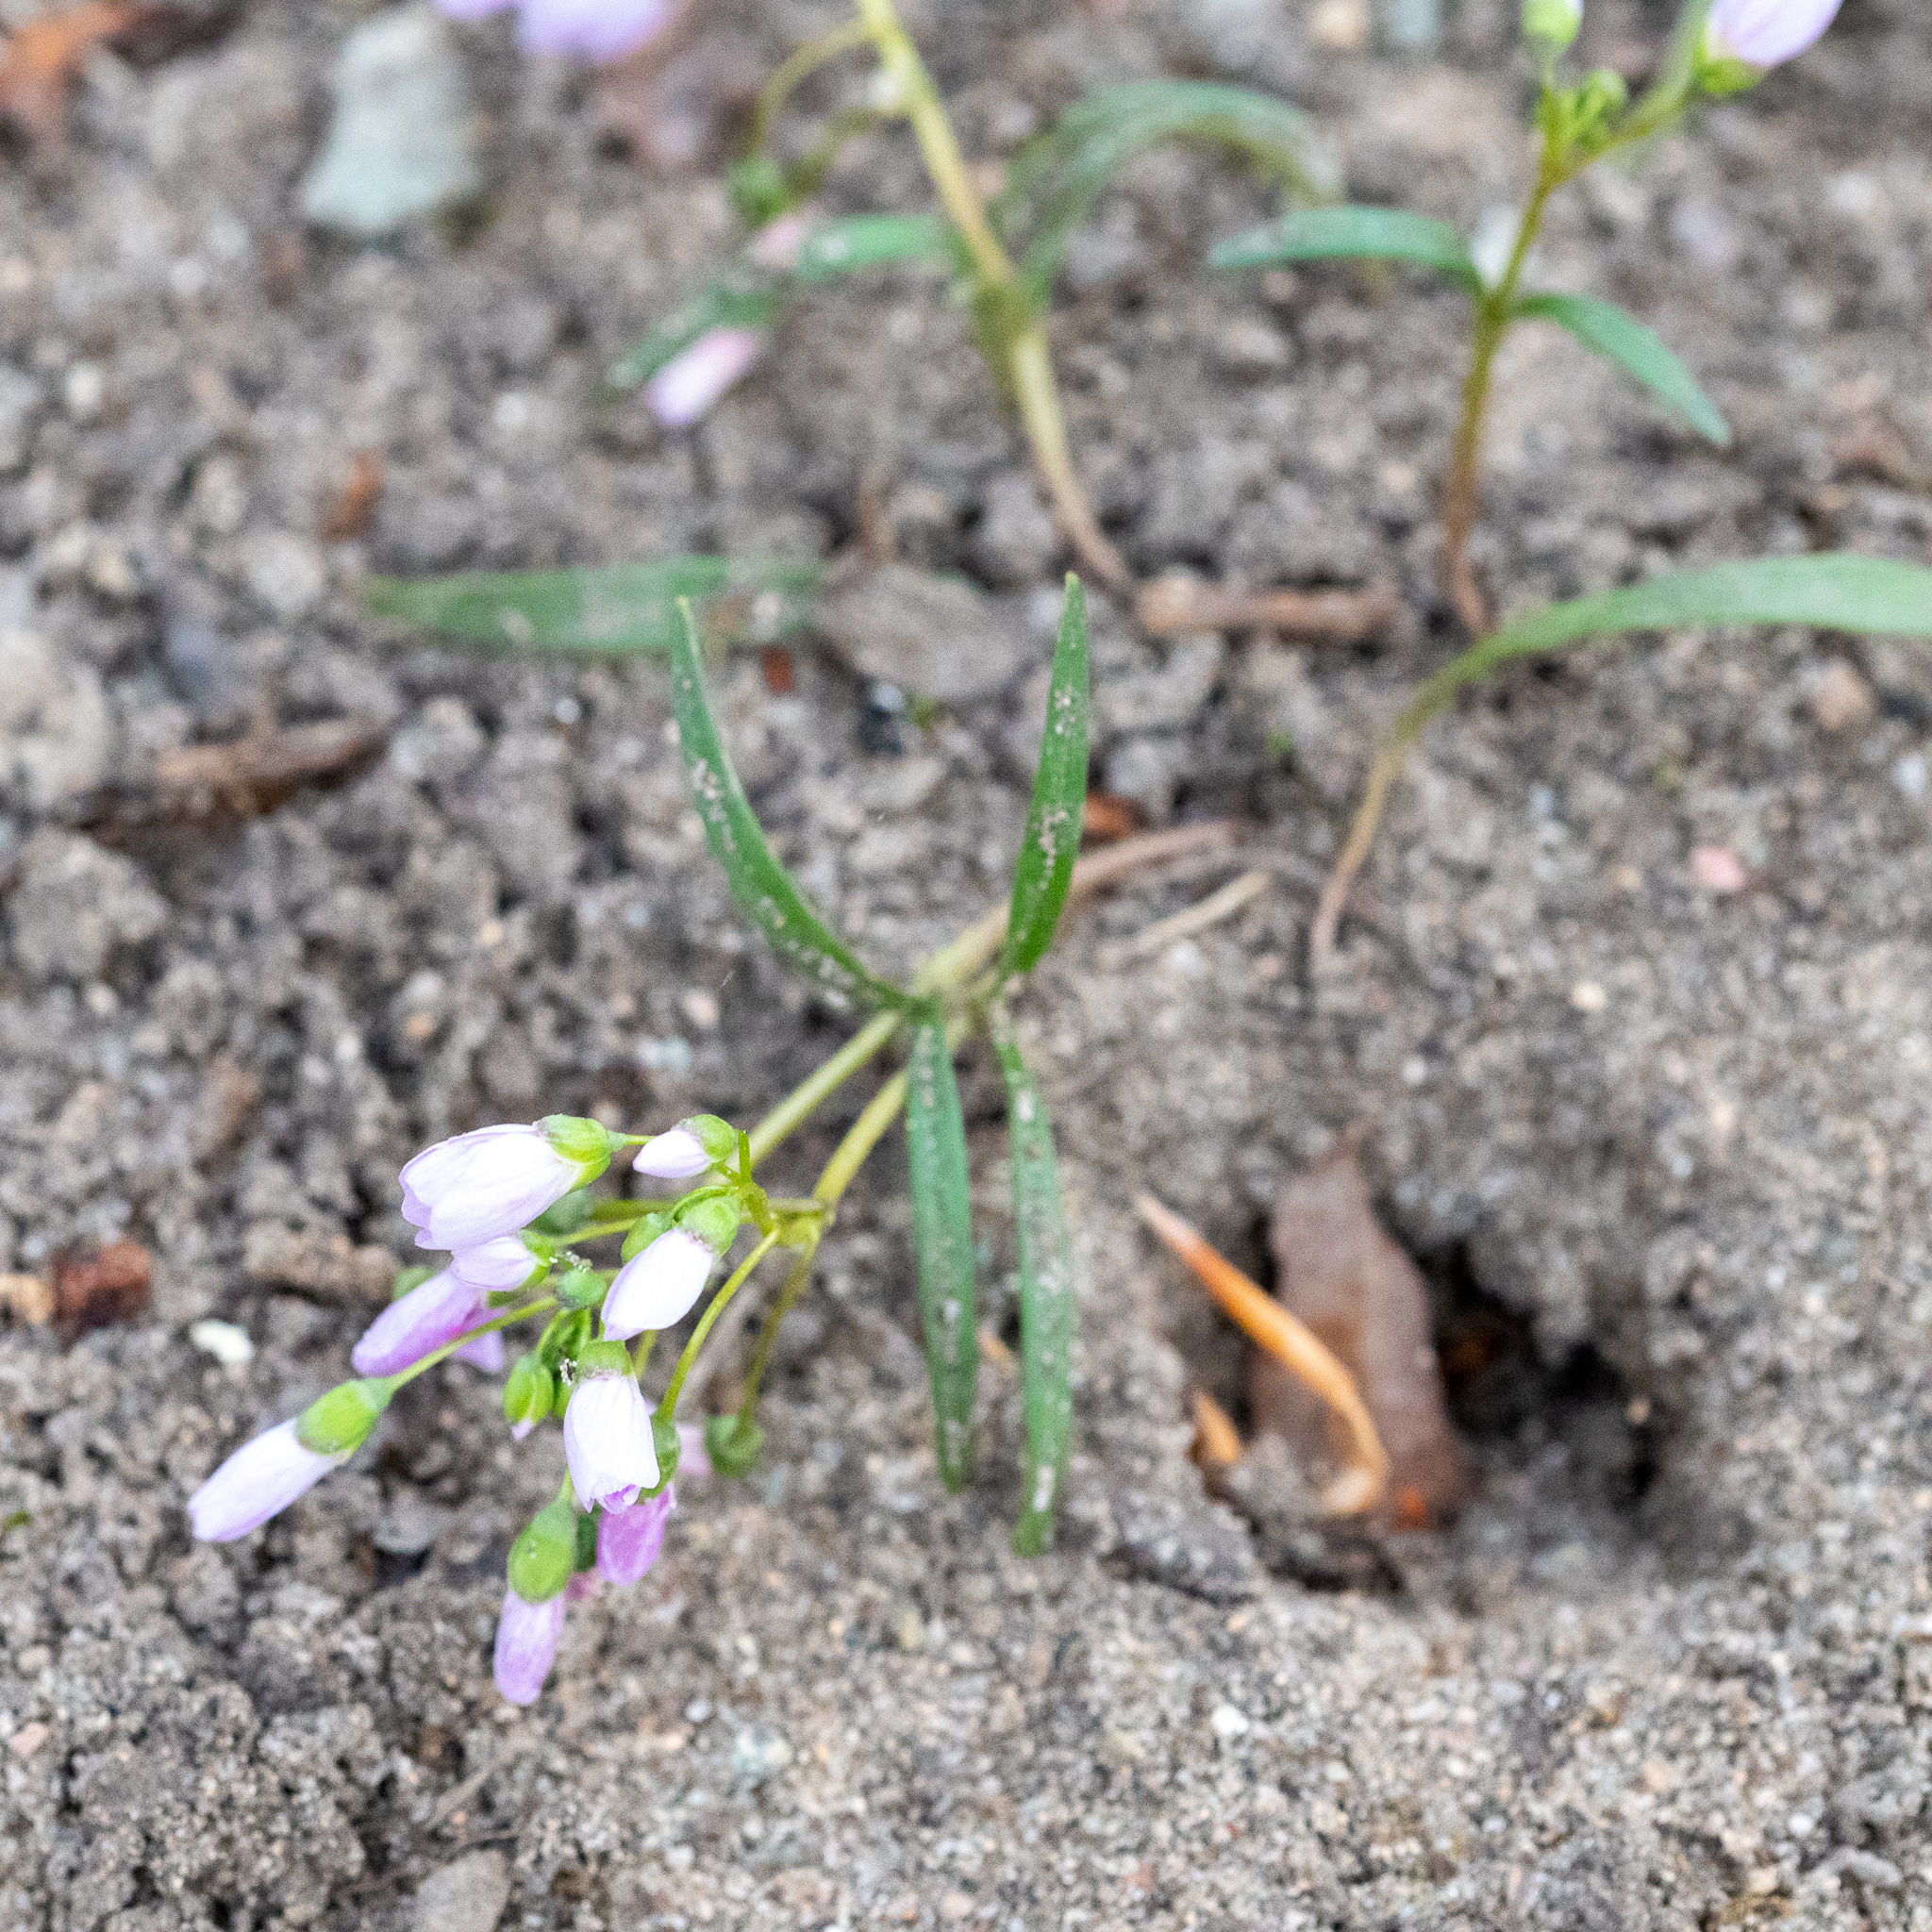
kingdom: Plantae
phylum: Tracheophyta
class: Magnoliopsida
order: Caryophyllales
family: Montiaceae
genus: Claytonia
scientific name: Claytonia virginica
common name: Virginia springbeauty
